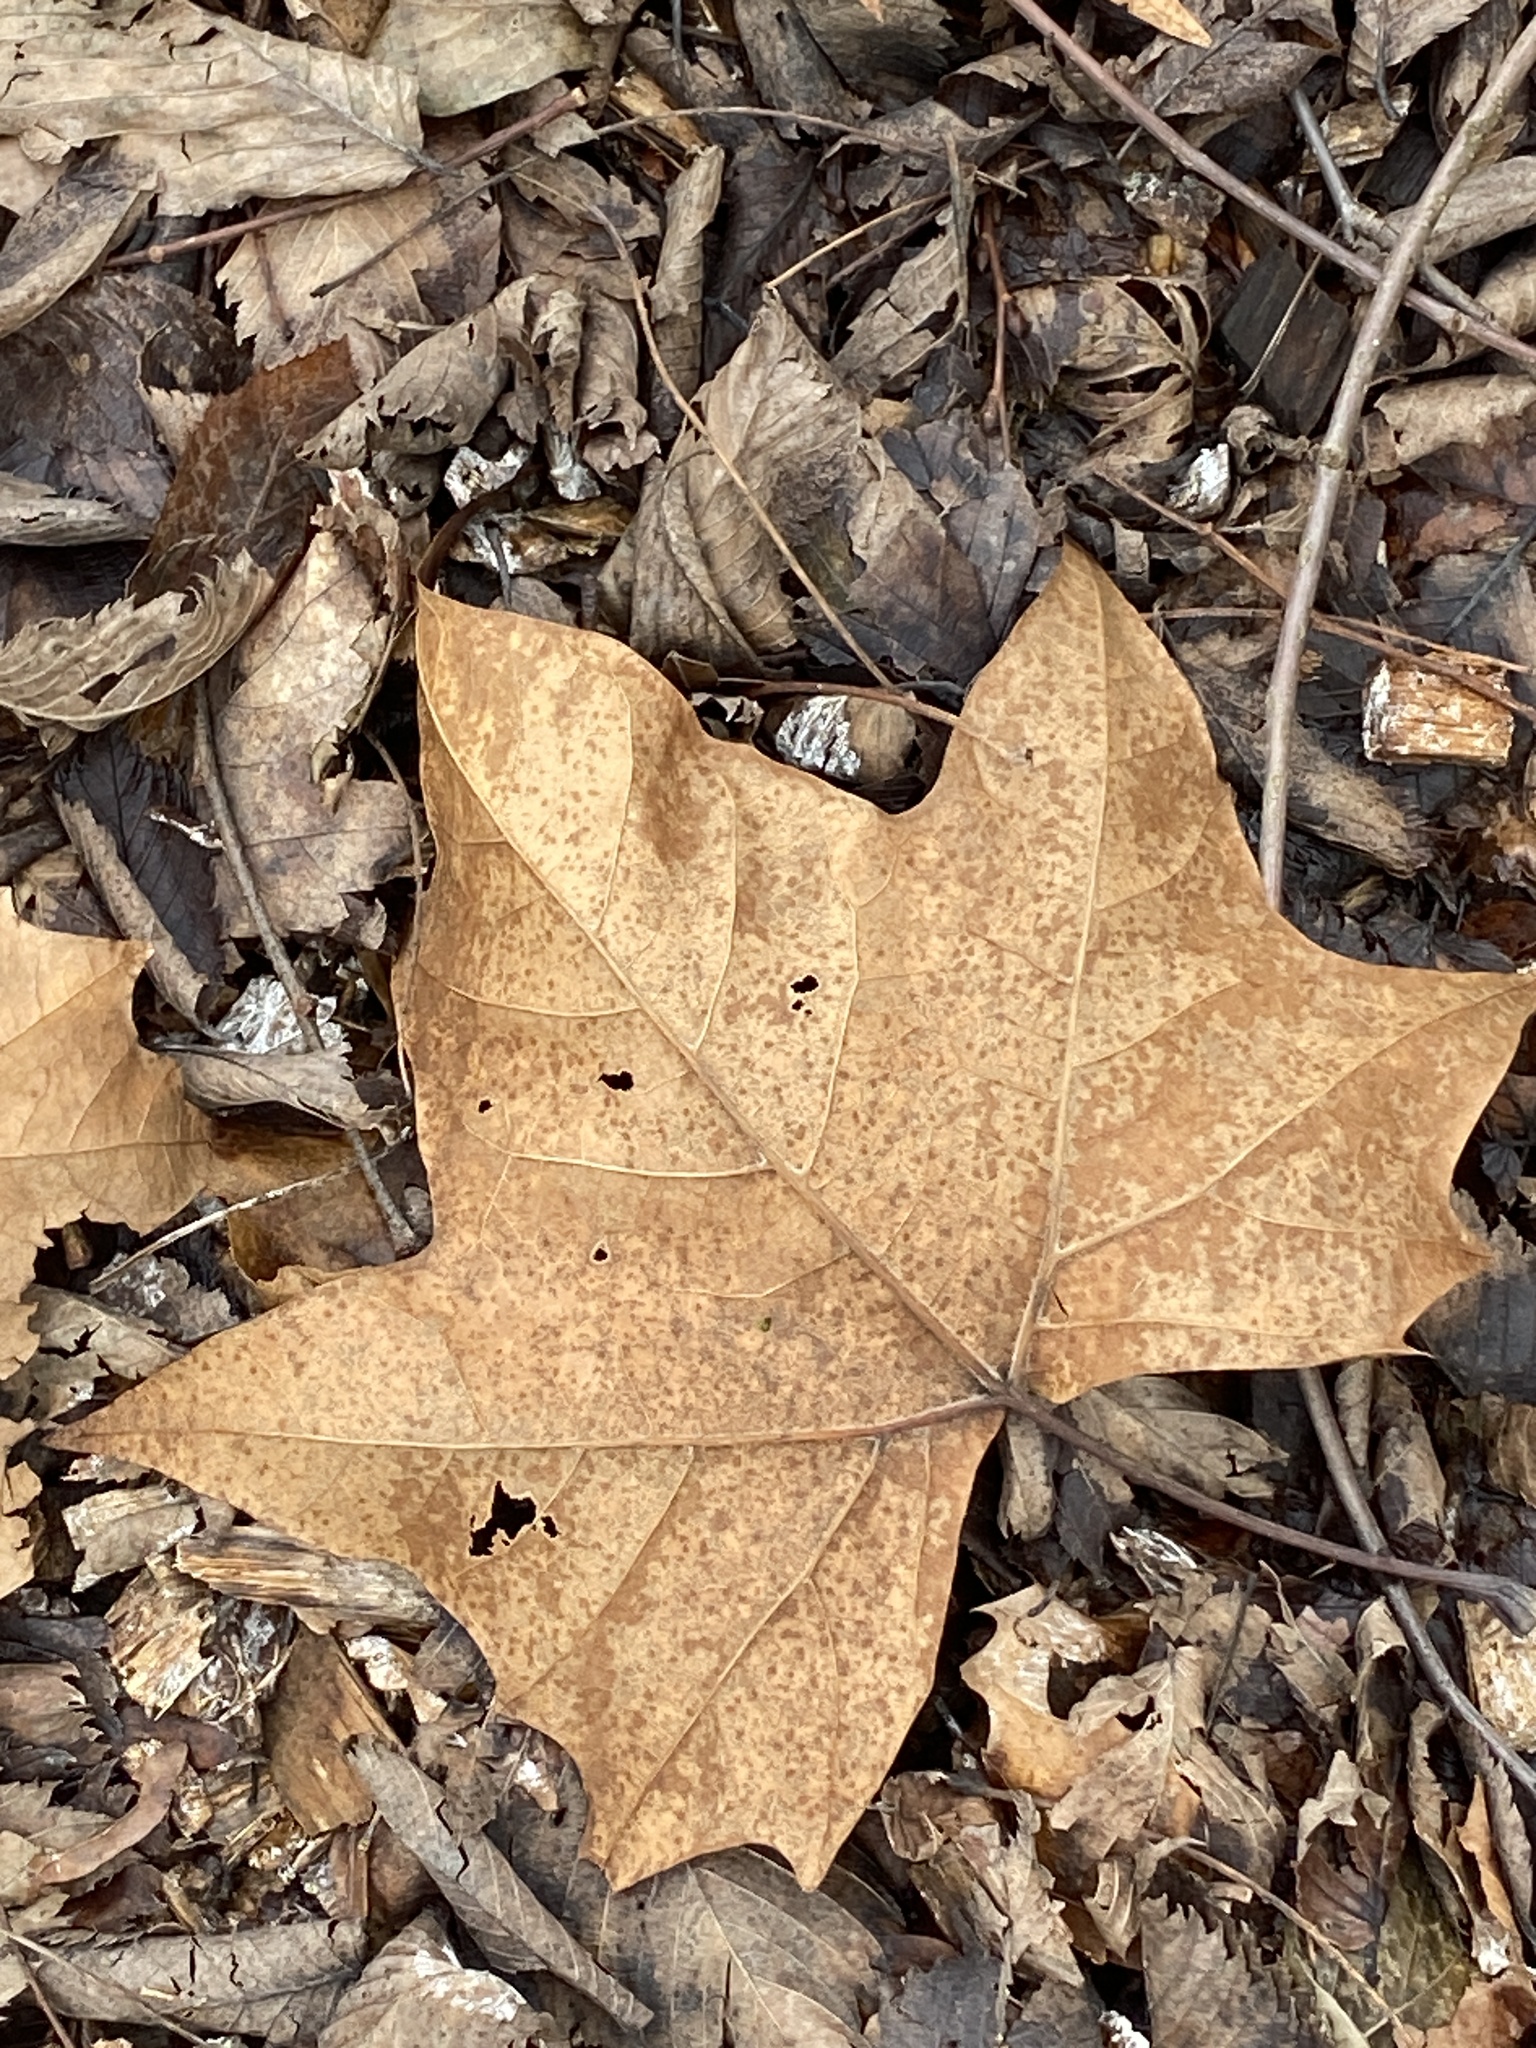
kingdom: Plantae
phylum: Tracheophyta
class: Magnoliopsida
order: Proteales
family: Platanaceae
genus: Platanus
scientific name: Platanus occidentalis
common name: American sycamore
